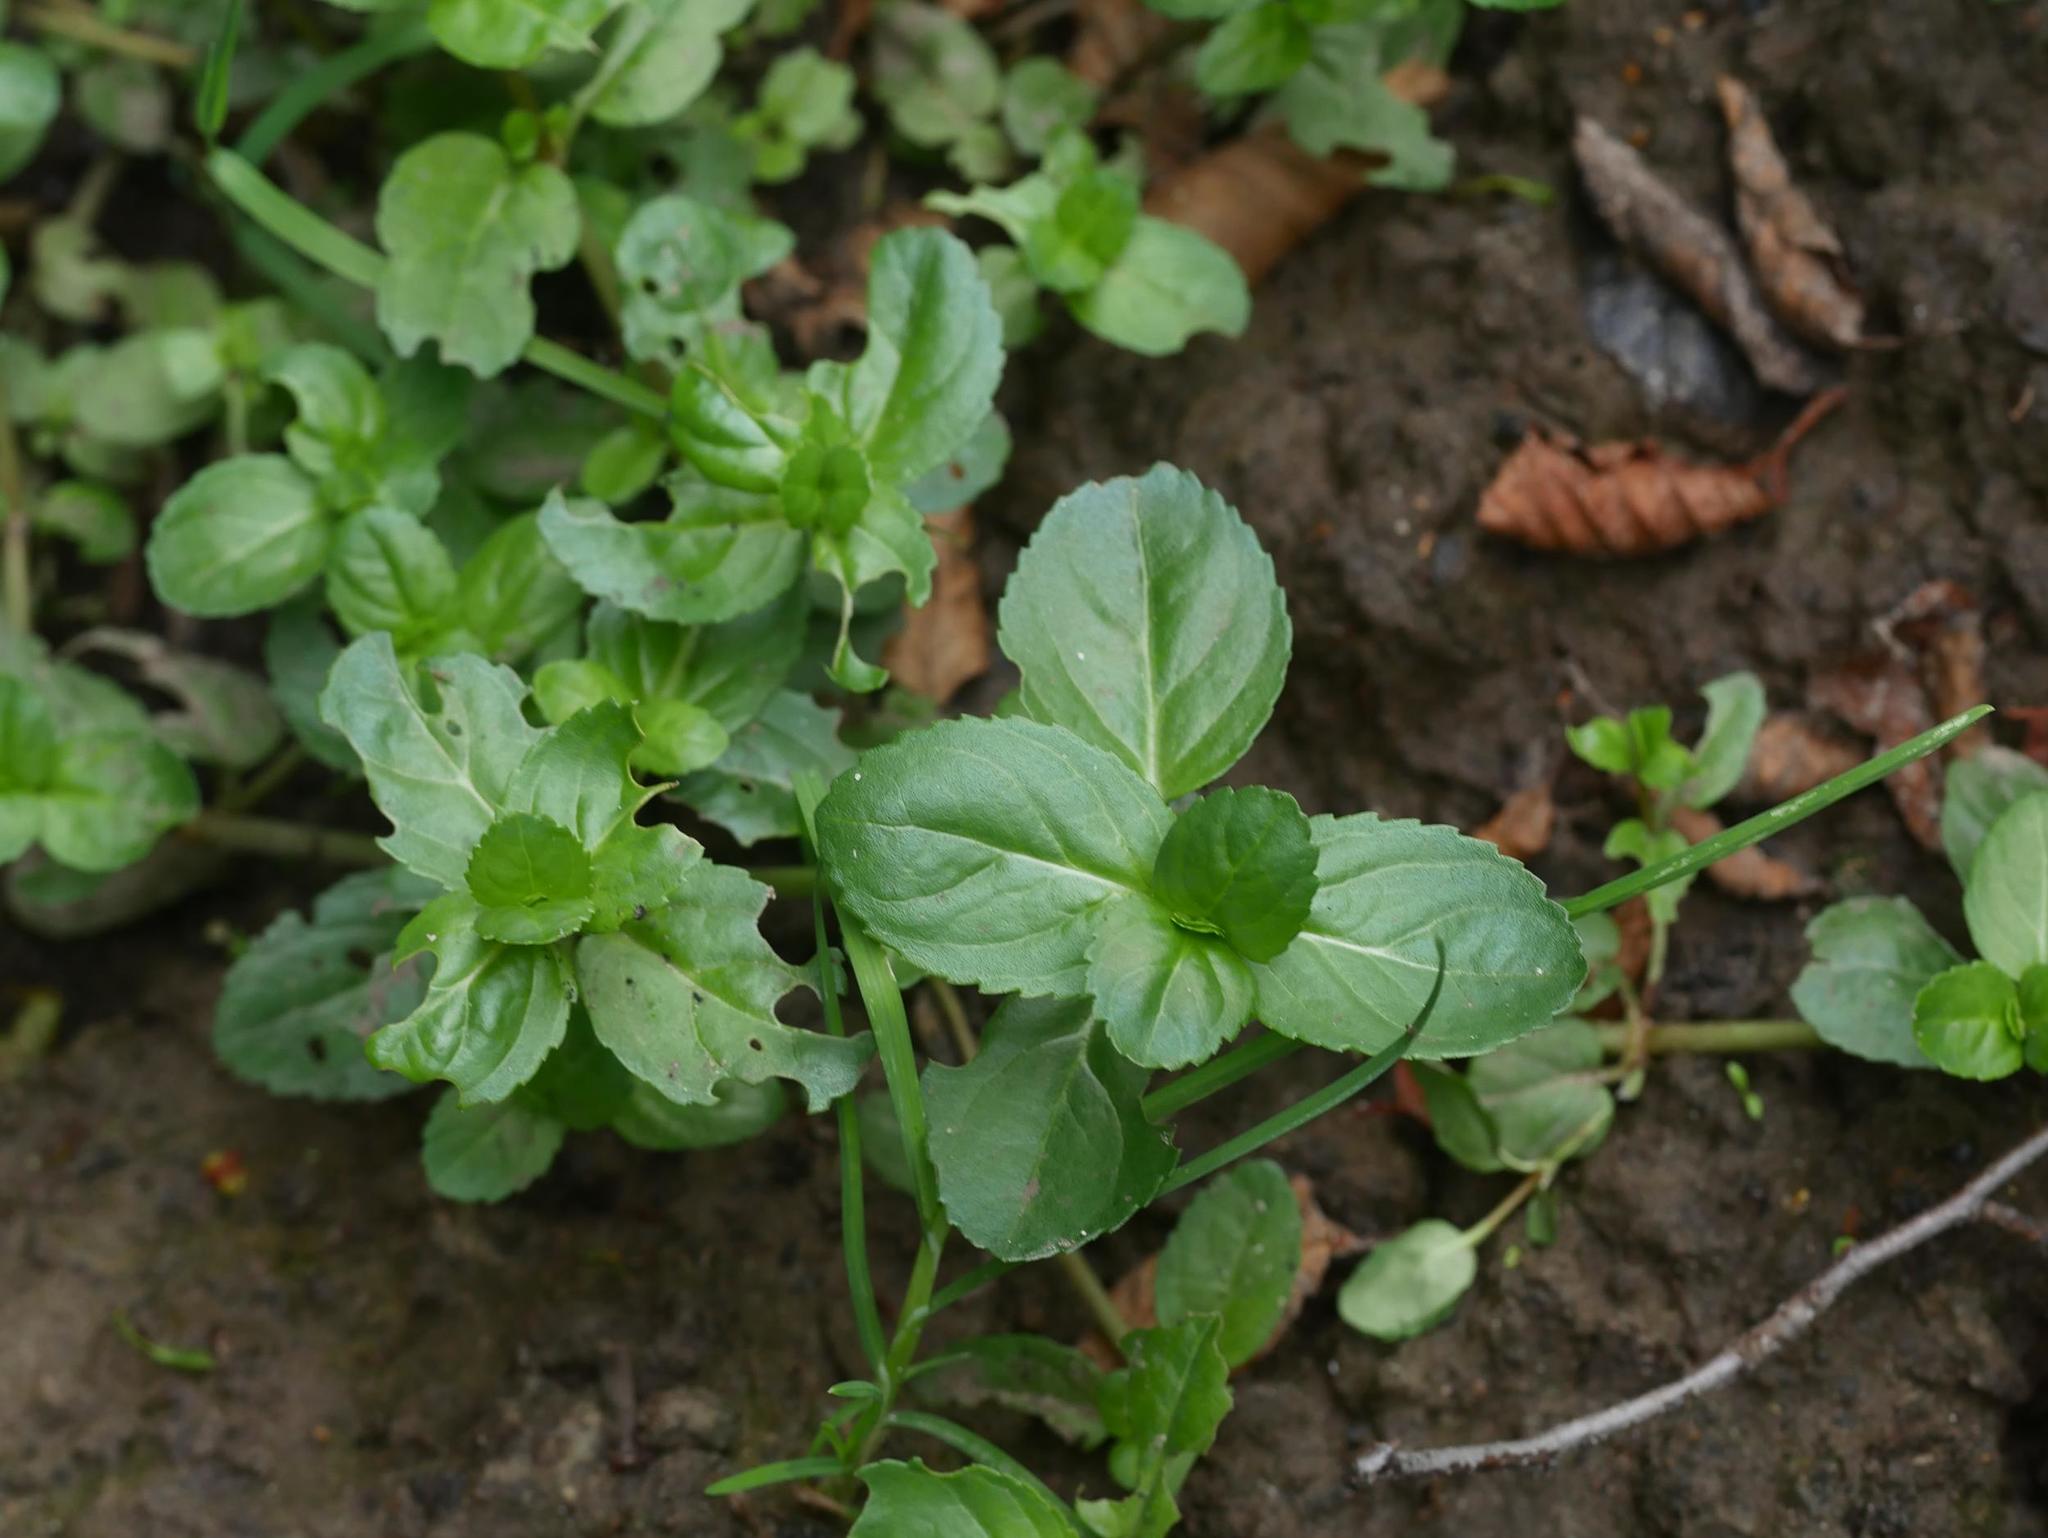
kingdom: Plantae
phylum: Tracheophyta
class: Magnoliopsida
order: Lamiales
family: Plantaginaceae
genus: Veronica
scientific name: Veronica beccabunga
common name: Brooklime
